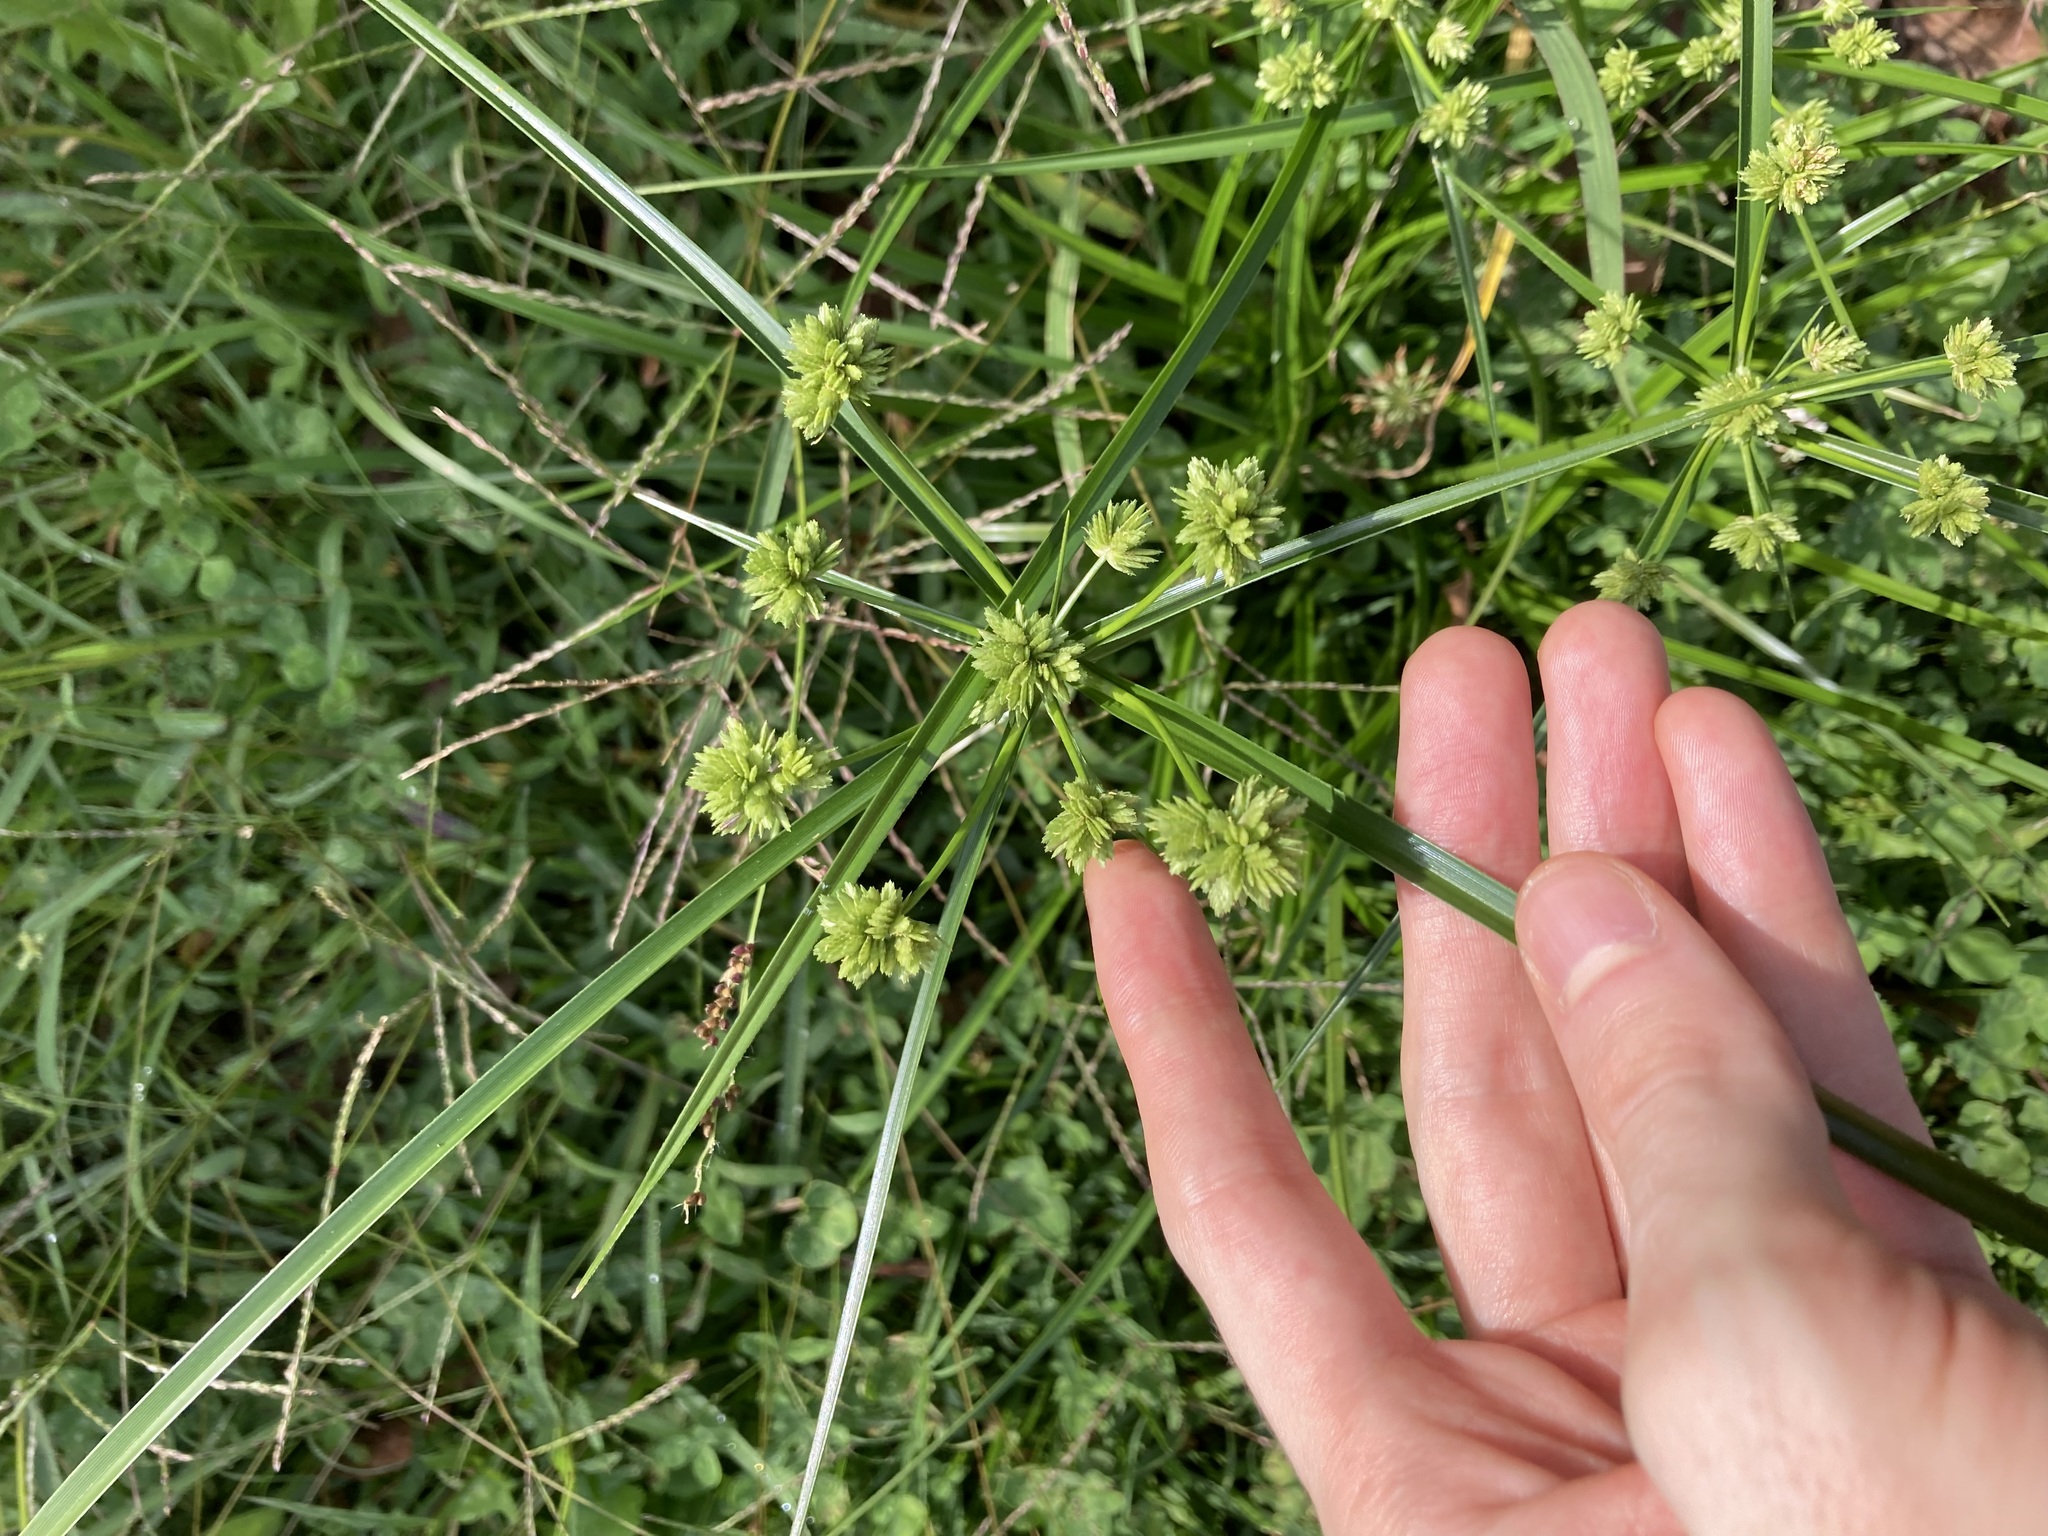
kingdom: Plantae
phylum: Tracheophyta
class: Liliopsida
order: Poales
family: Cyperaceae
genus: Cyperus
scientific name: Cyperus eragrostis
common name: Tall flatsedge
